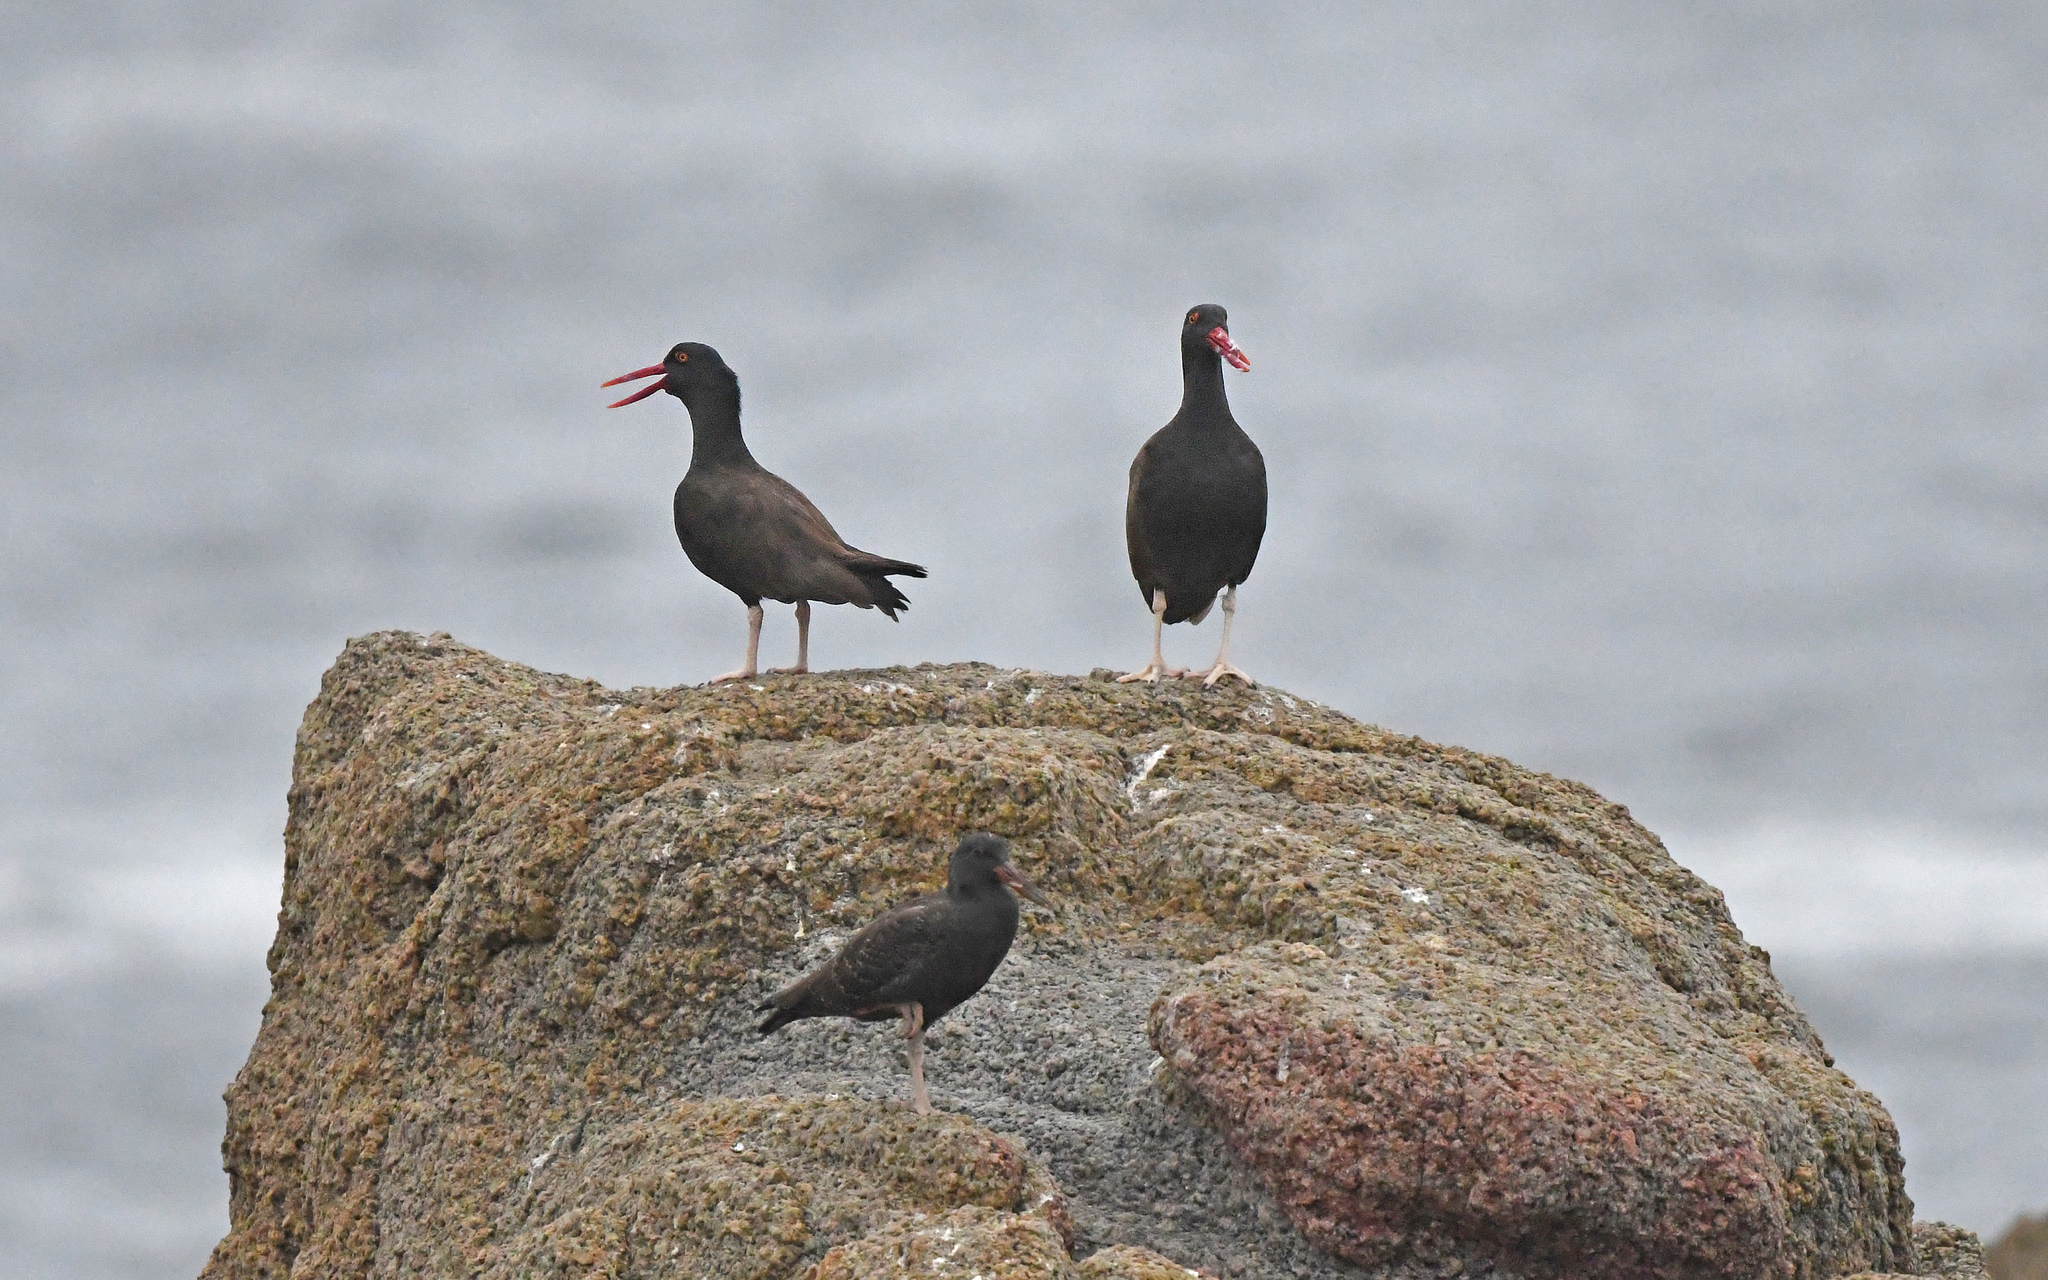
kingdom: Animalia
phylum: Chordata
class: Aves
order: Charadriiformes
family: Haematopodidae
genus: Haematopus
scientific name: Haematopus ater
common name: Blackish oystercatcher
